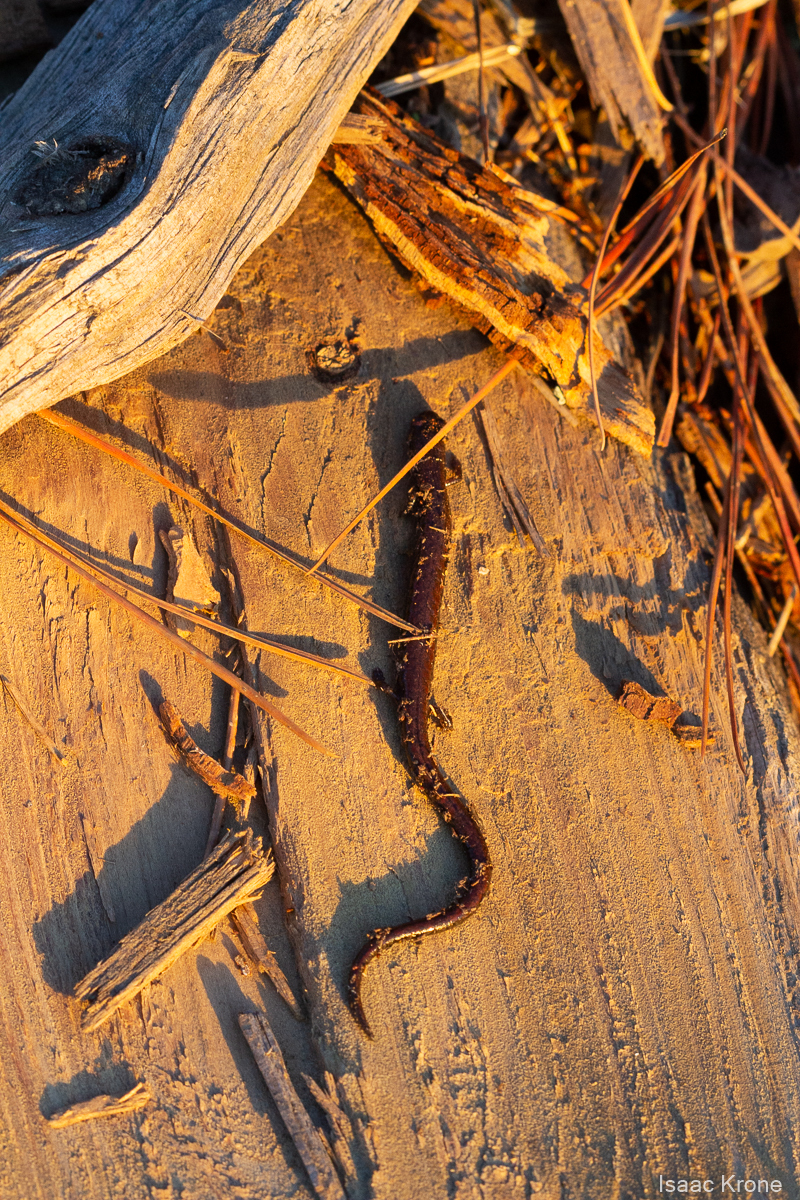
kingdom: Animalia
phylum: Chordata
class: Amphibia
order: Caudata
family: Plethodontidae
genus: Batrachoseps
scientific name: Batrachoseps attenuatus
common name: California slender salamander
